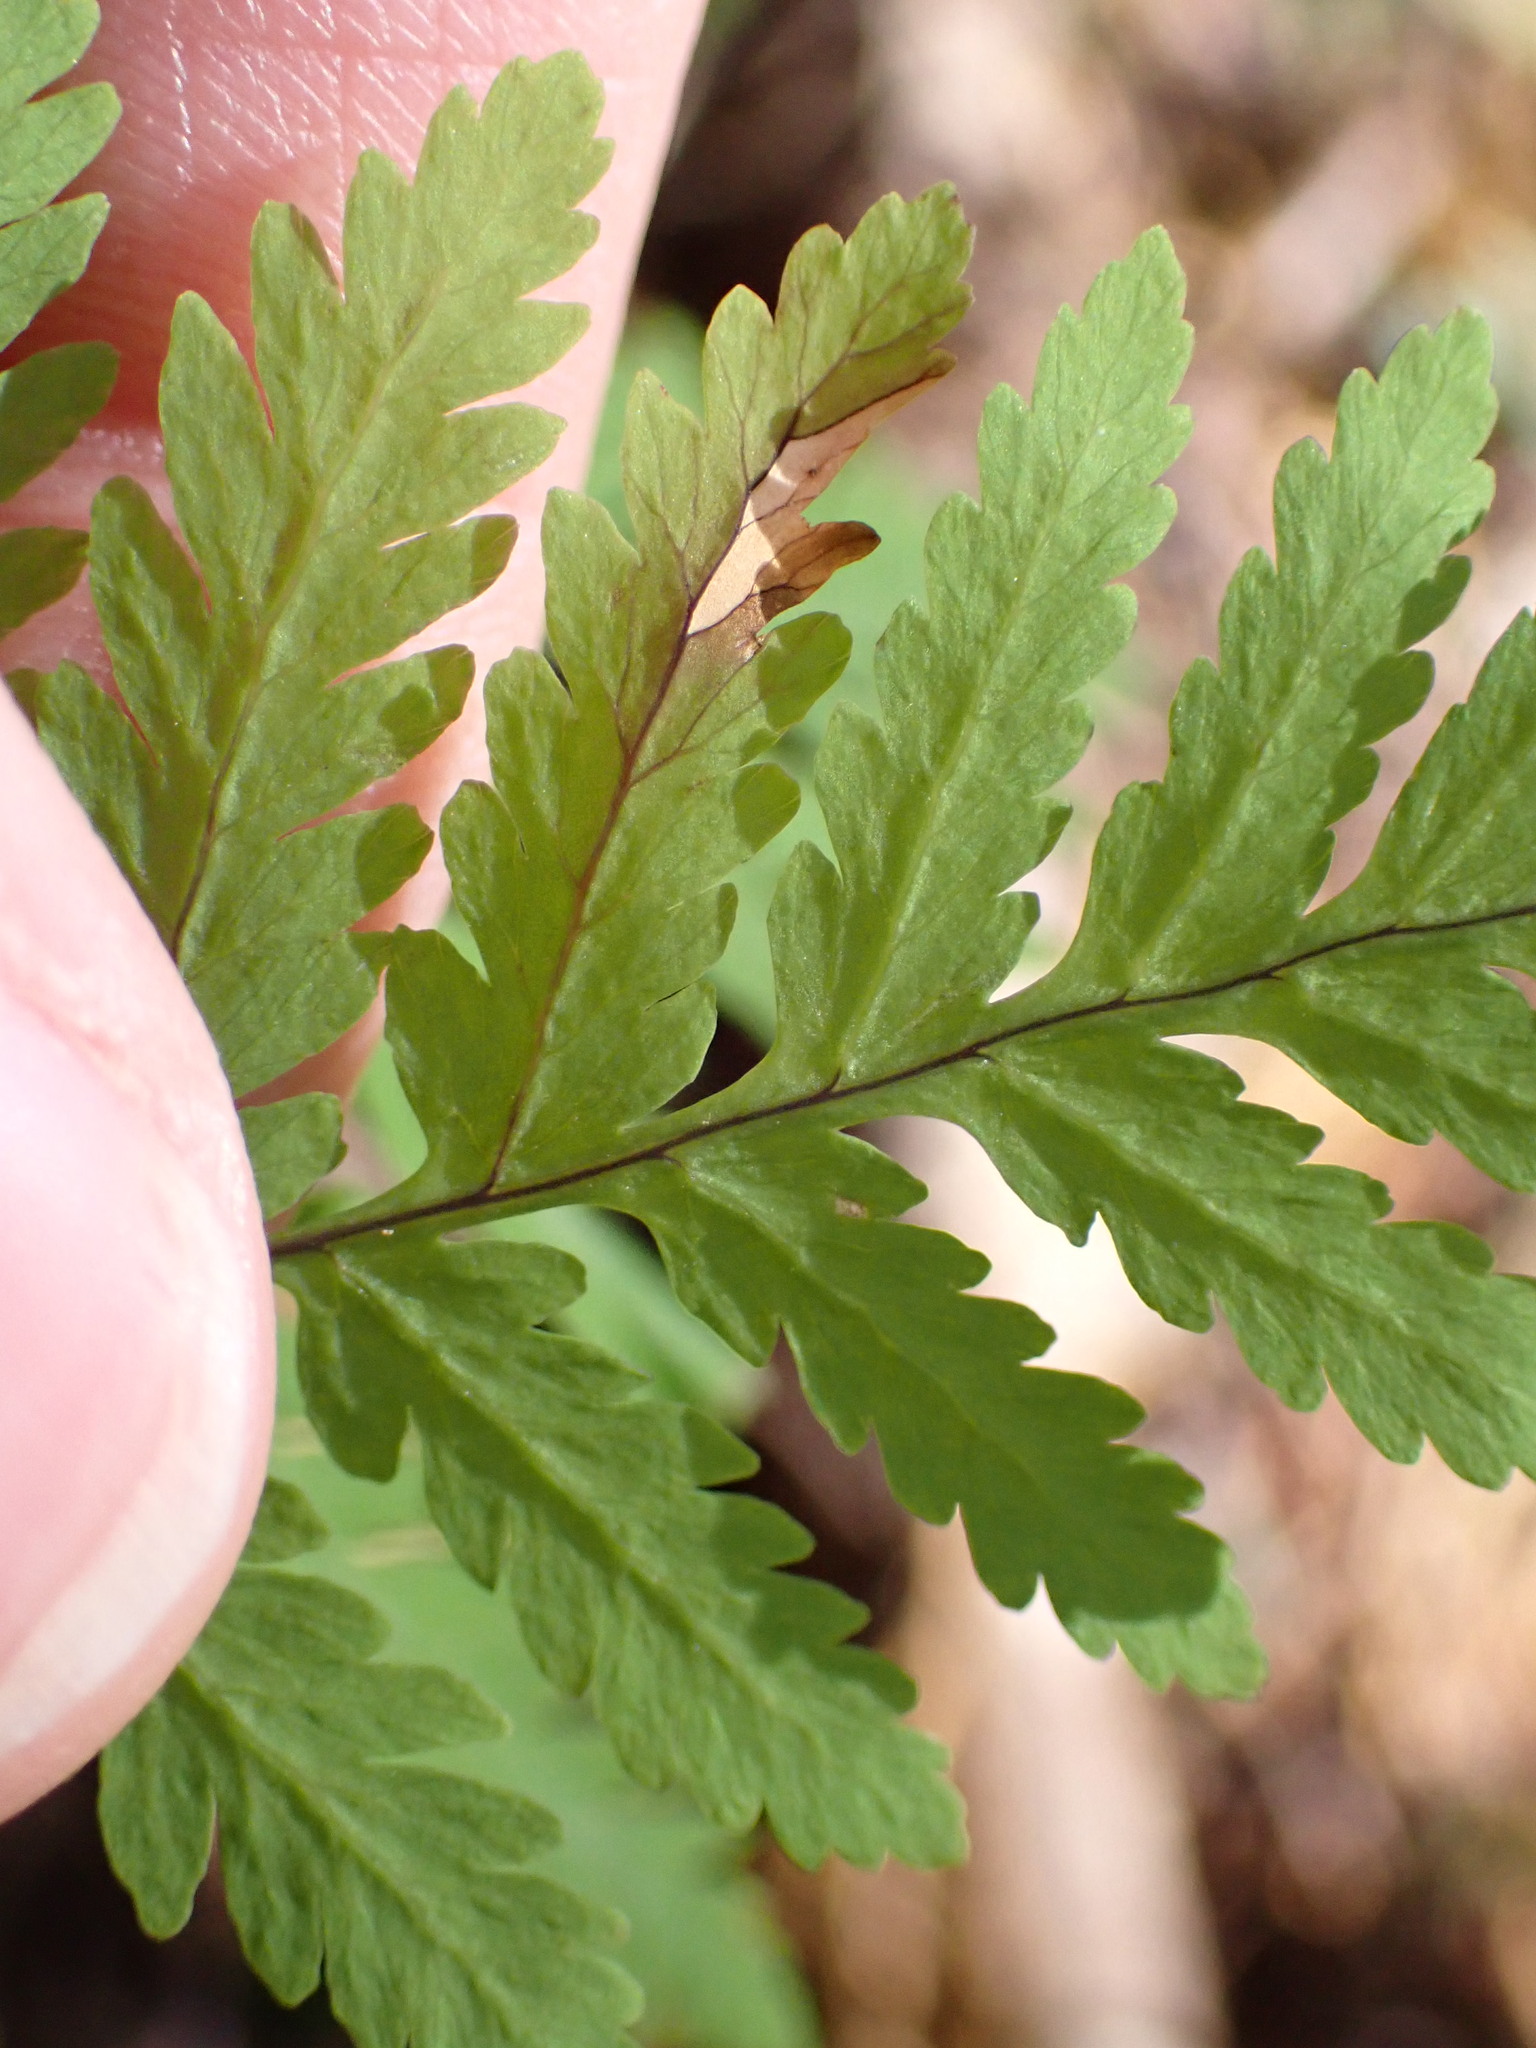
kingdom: Plantae
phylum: Tracheophyta
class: Polypodiopsida
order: Polypodiales
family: Cystopteridaceae
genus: Gymnocarpium
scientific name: Gymnocarpium disjunctum
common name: Western oak fern
